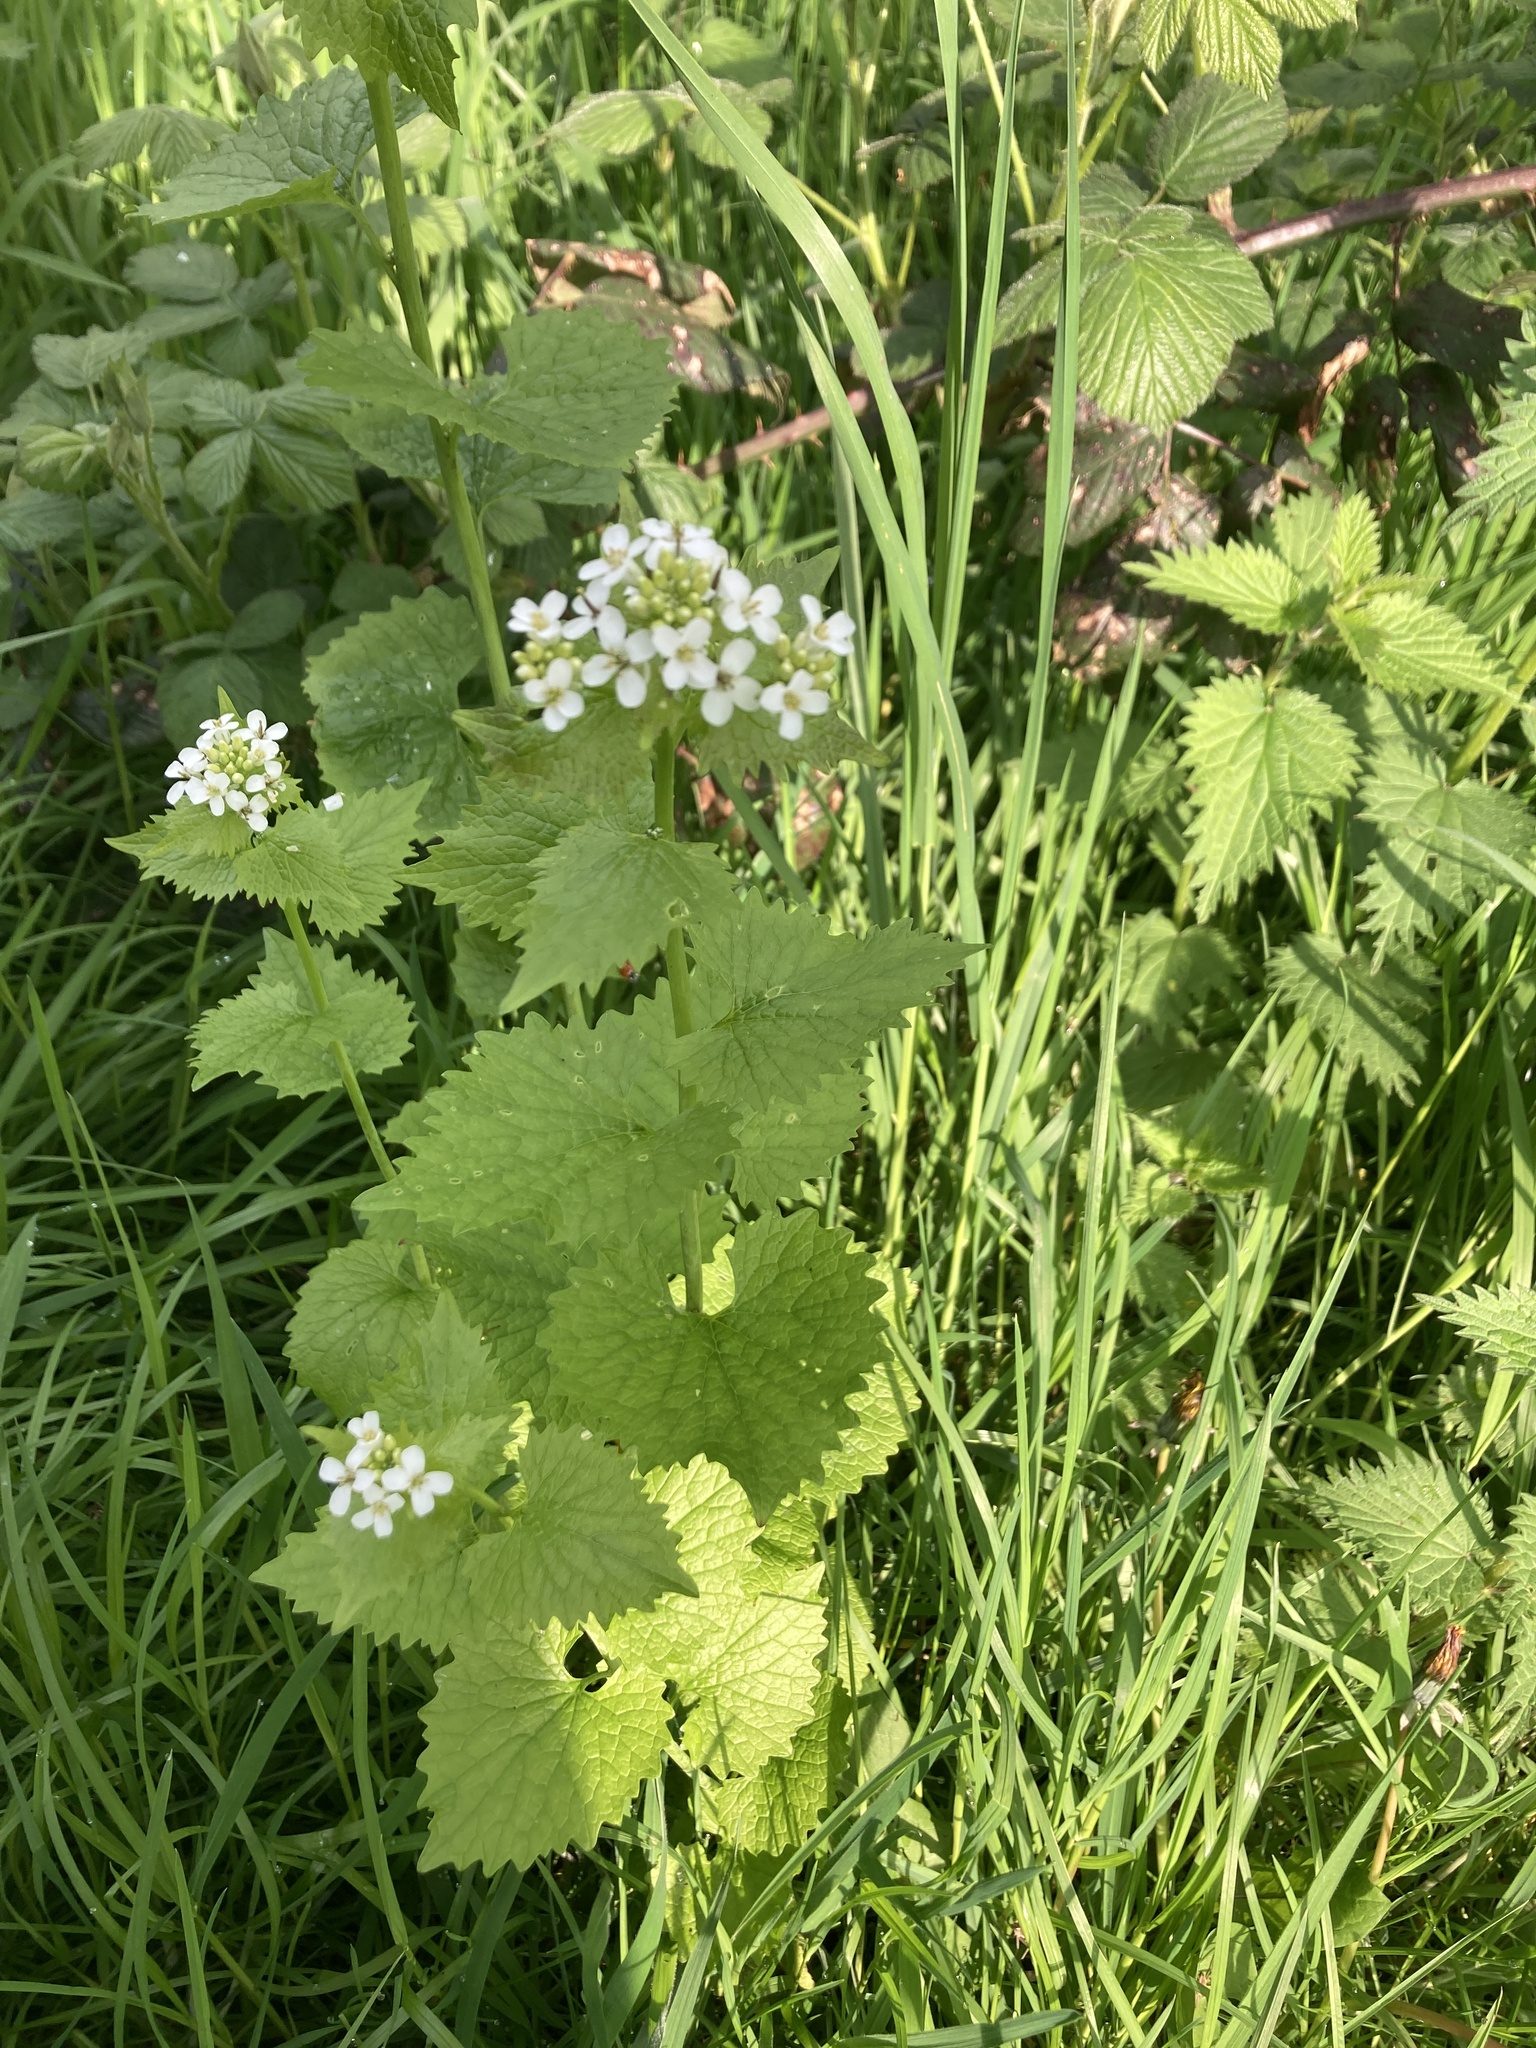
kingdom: Plantae
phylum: Tracheophyta
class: Magnoliopsida
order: Brassicales
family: Brassicaceae
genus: Alliaria
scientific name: Alliaria petiolata
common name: Garlic mustard
